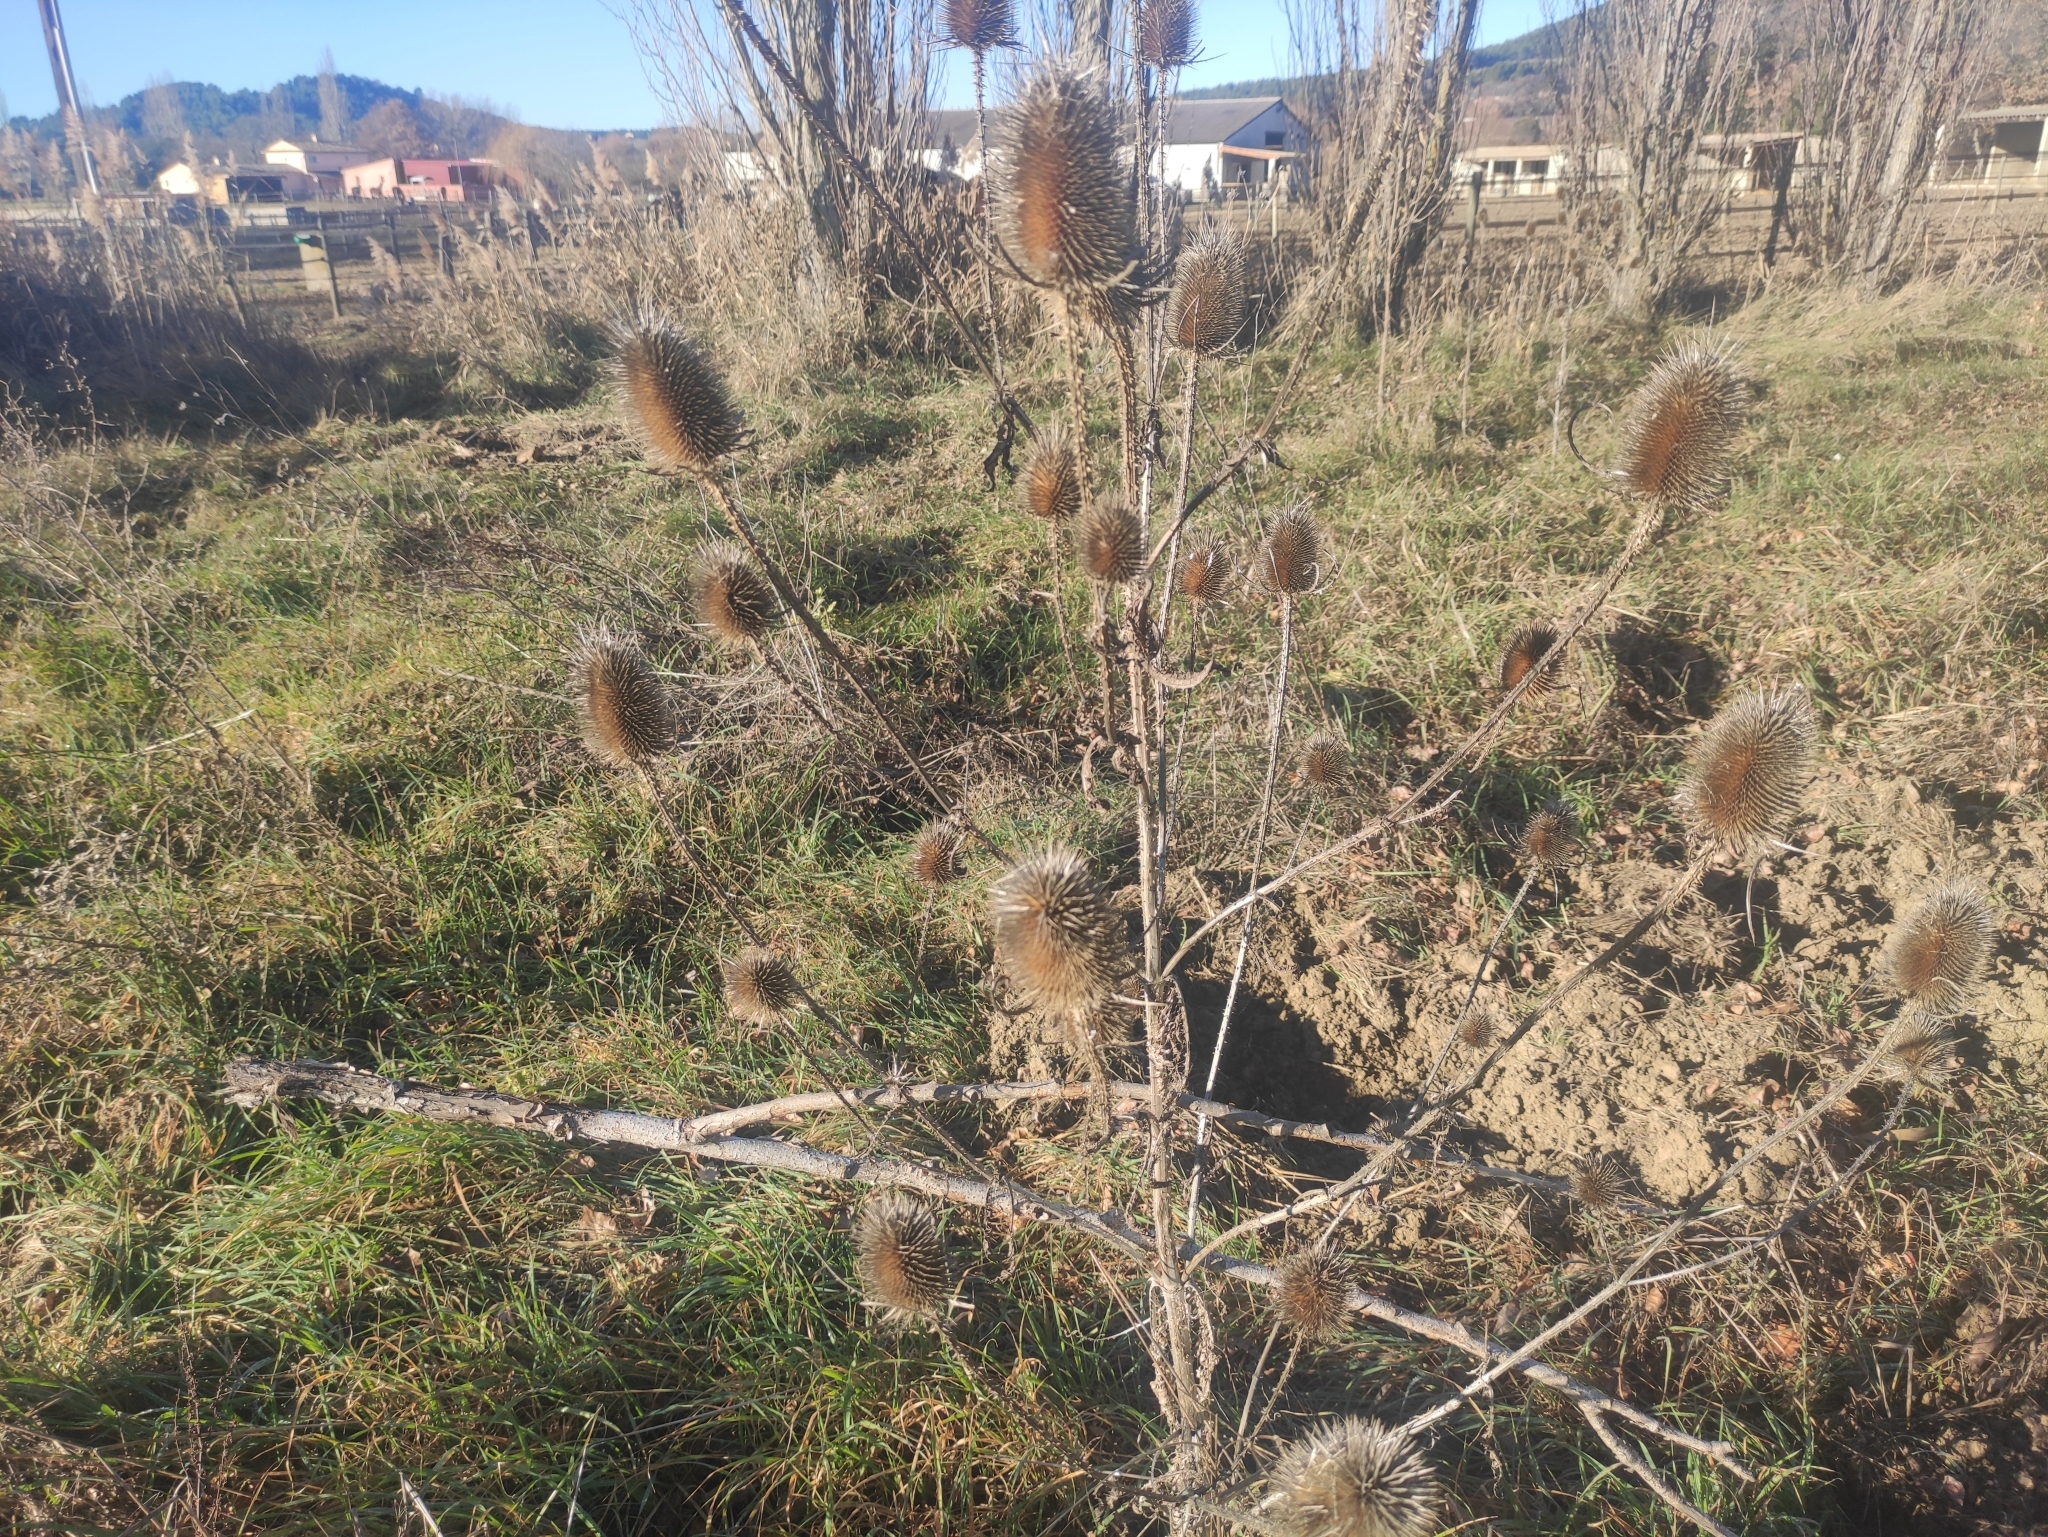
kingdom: Plantae
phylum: Tracheophyta
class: Magnoliopsida
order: Dipsacales
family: Caprifoliaceae
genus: Dipsacus
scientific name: Dipsacus fullonum
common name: Teasel
